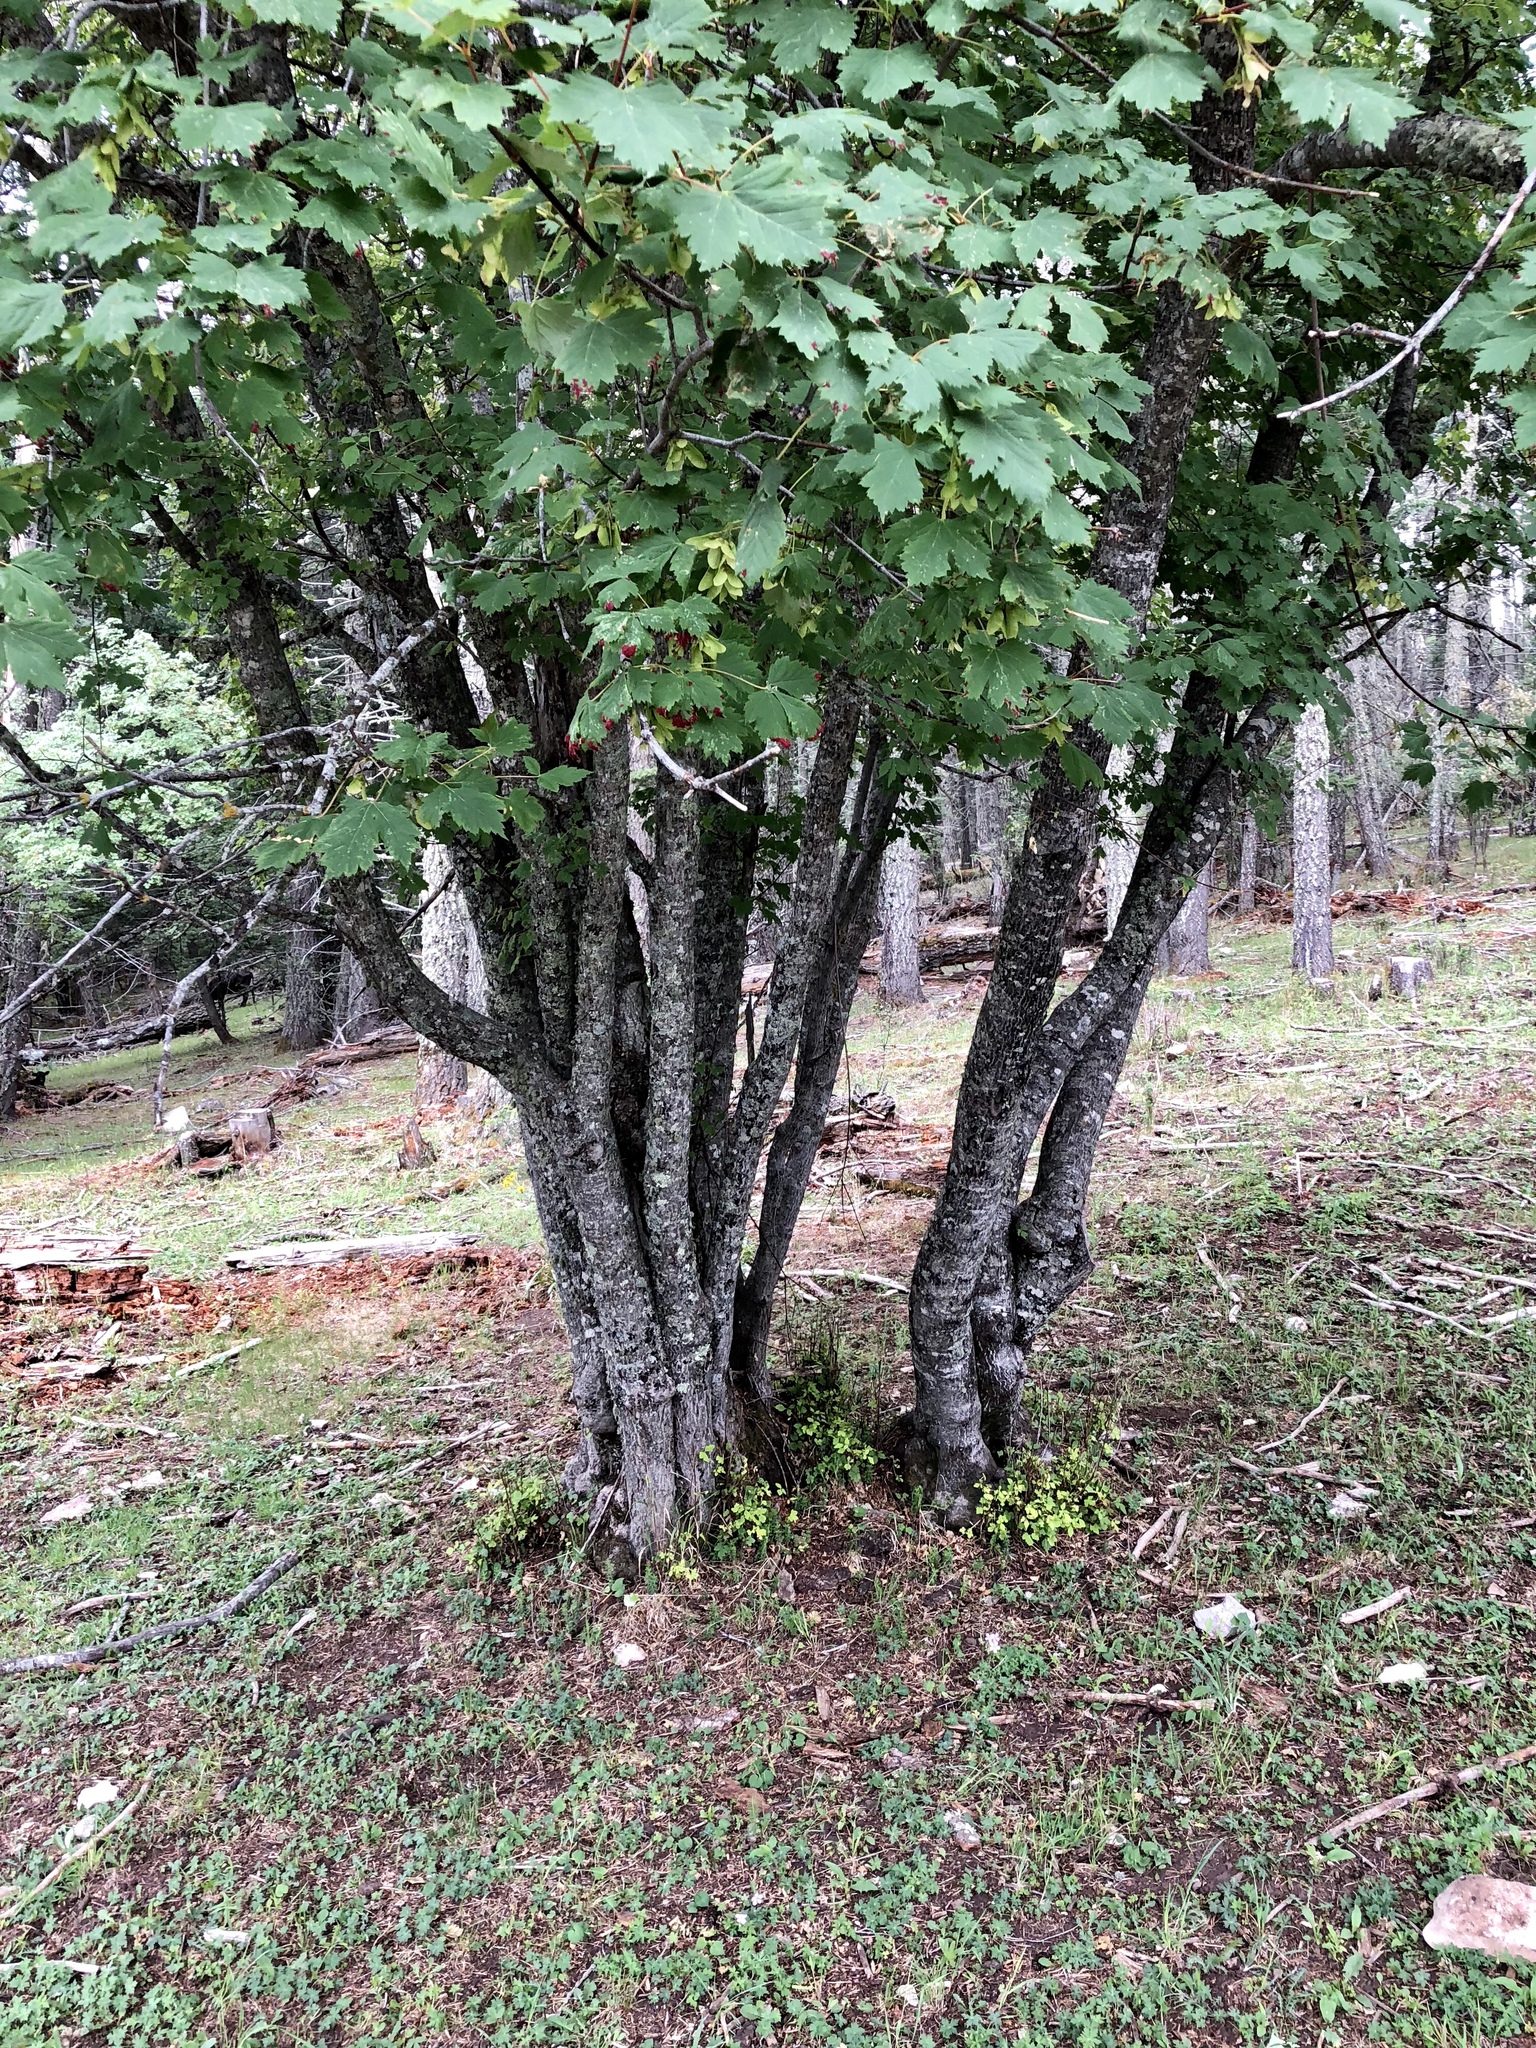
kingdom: Plantae
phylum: Tracheophyta
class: Magnoliopsida
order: Sapindales
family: Sapindaceae
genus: Acer
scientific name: Acer glabrum
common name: Rocky mountain maple
